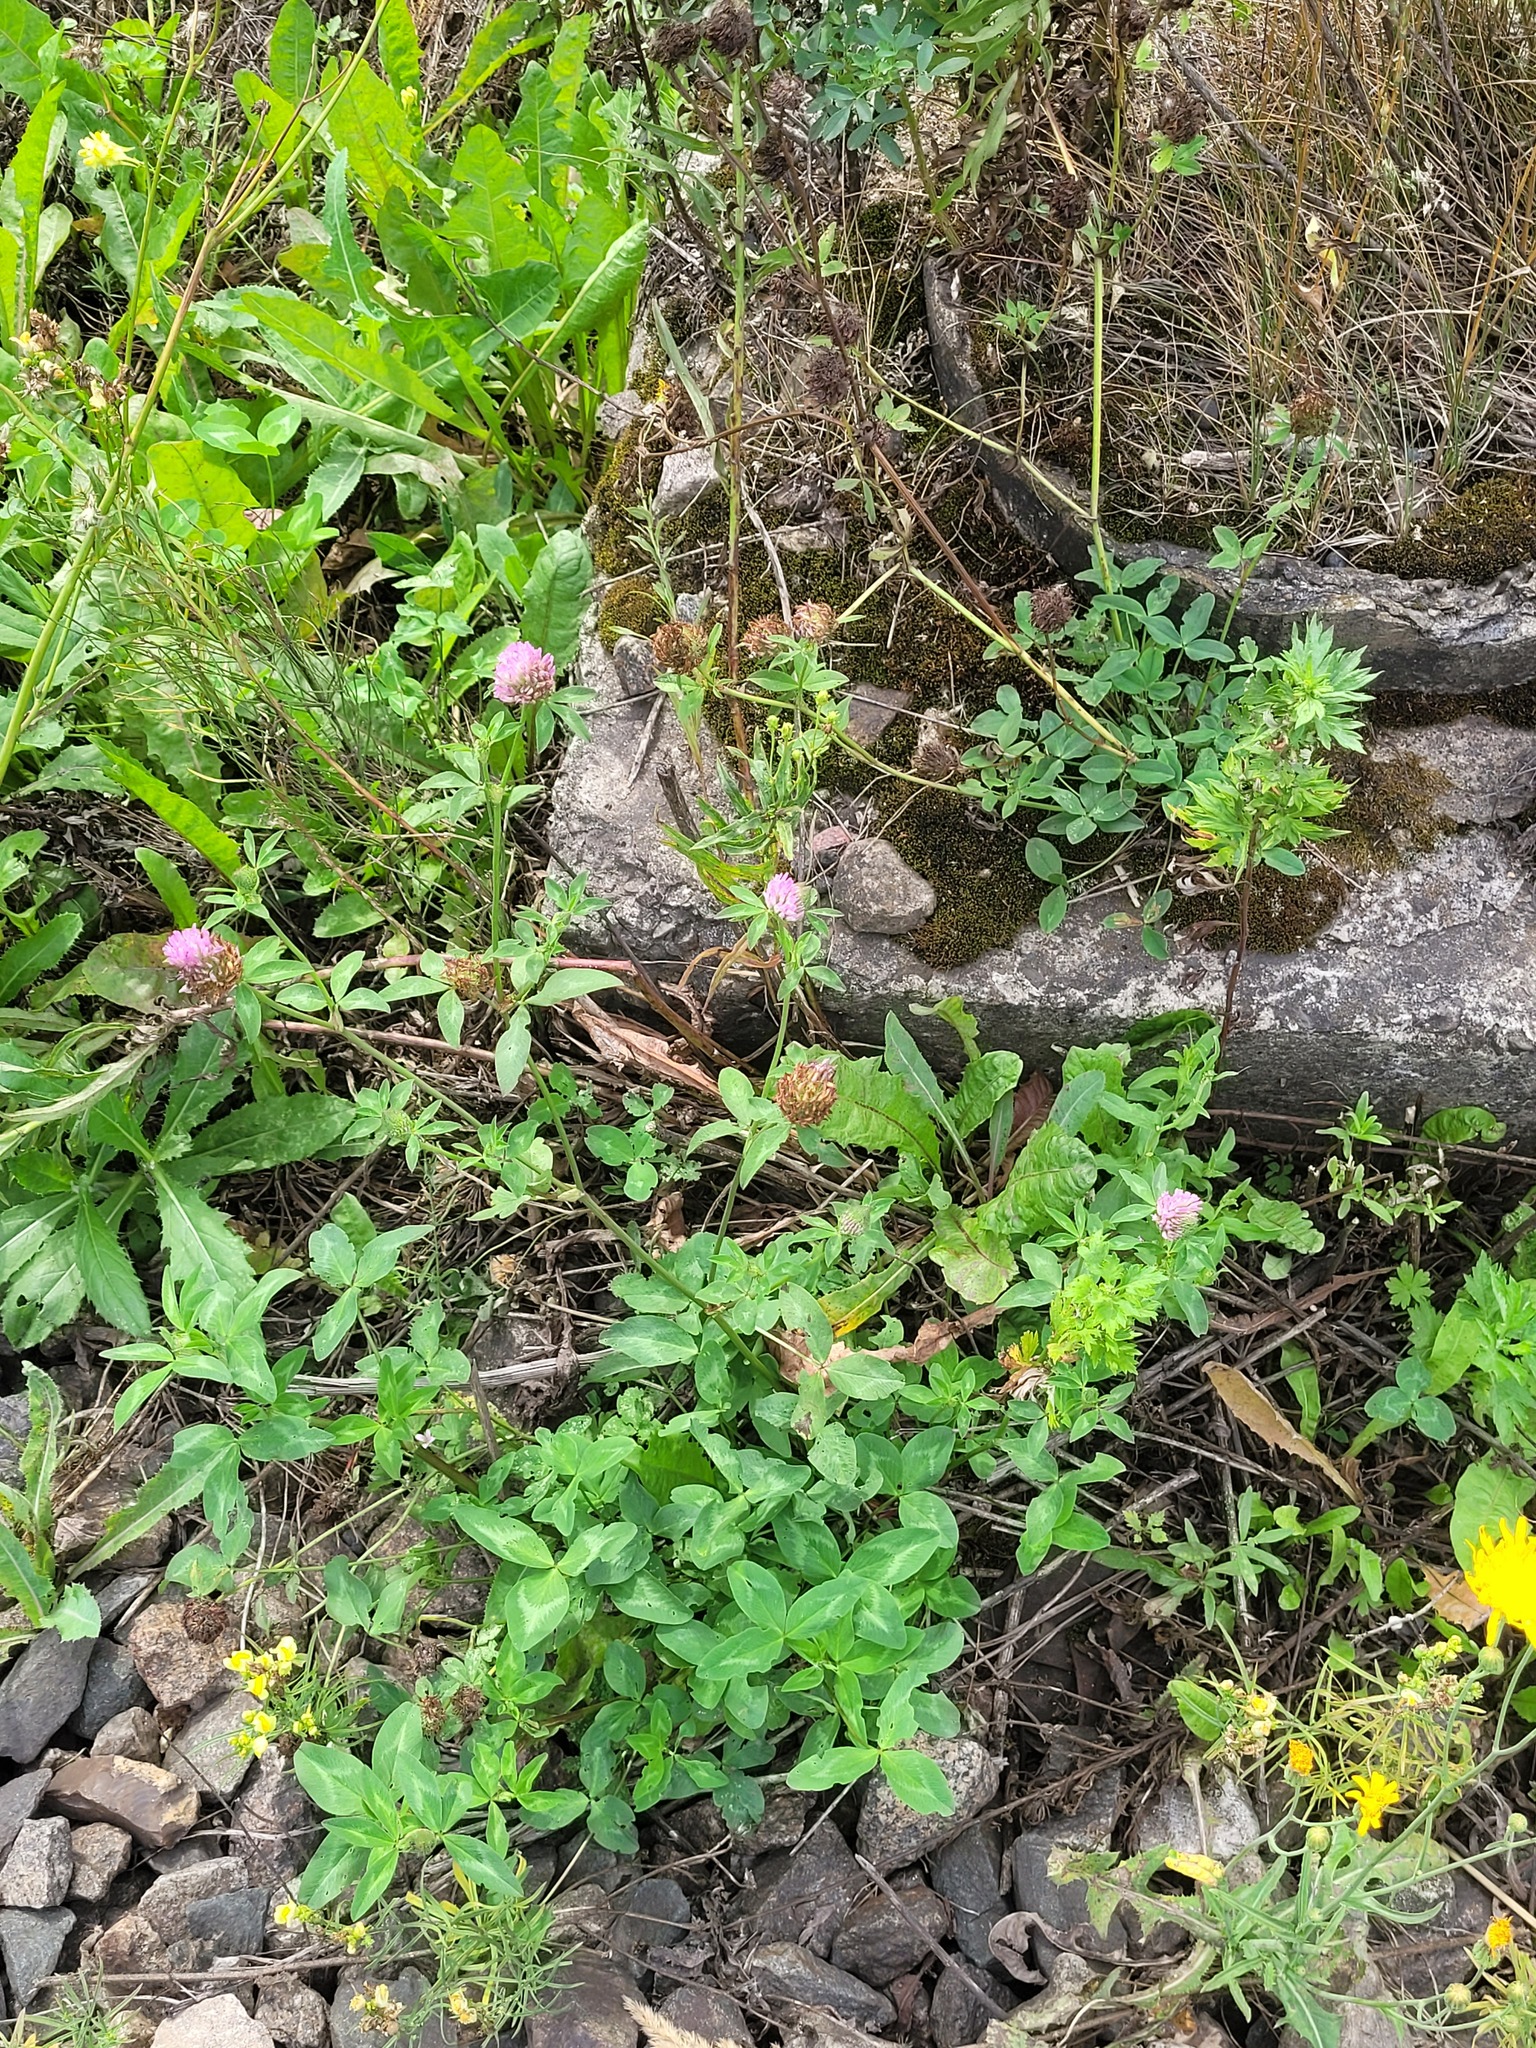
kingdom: Plantae
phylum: Tracheophyta
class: Magnoliopsida
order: Fabales
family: Fabaceae
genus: Trifolium
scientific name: Trifolium pratense
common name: Red clover
